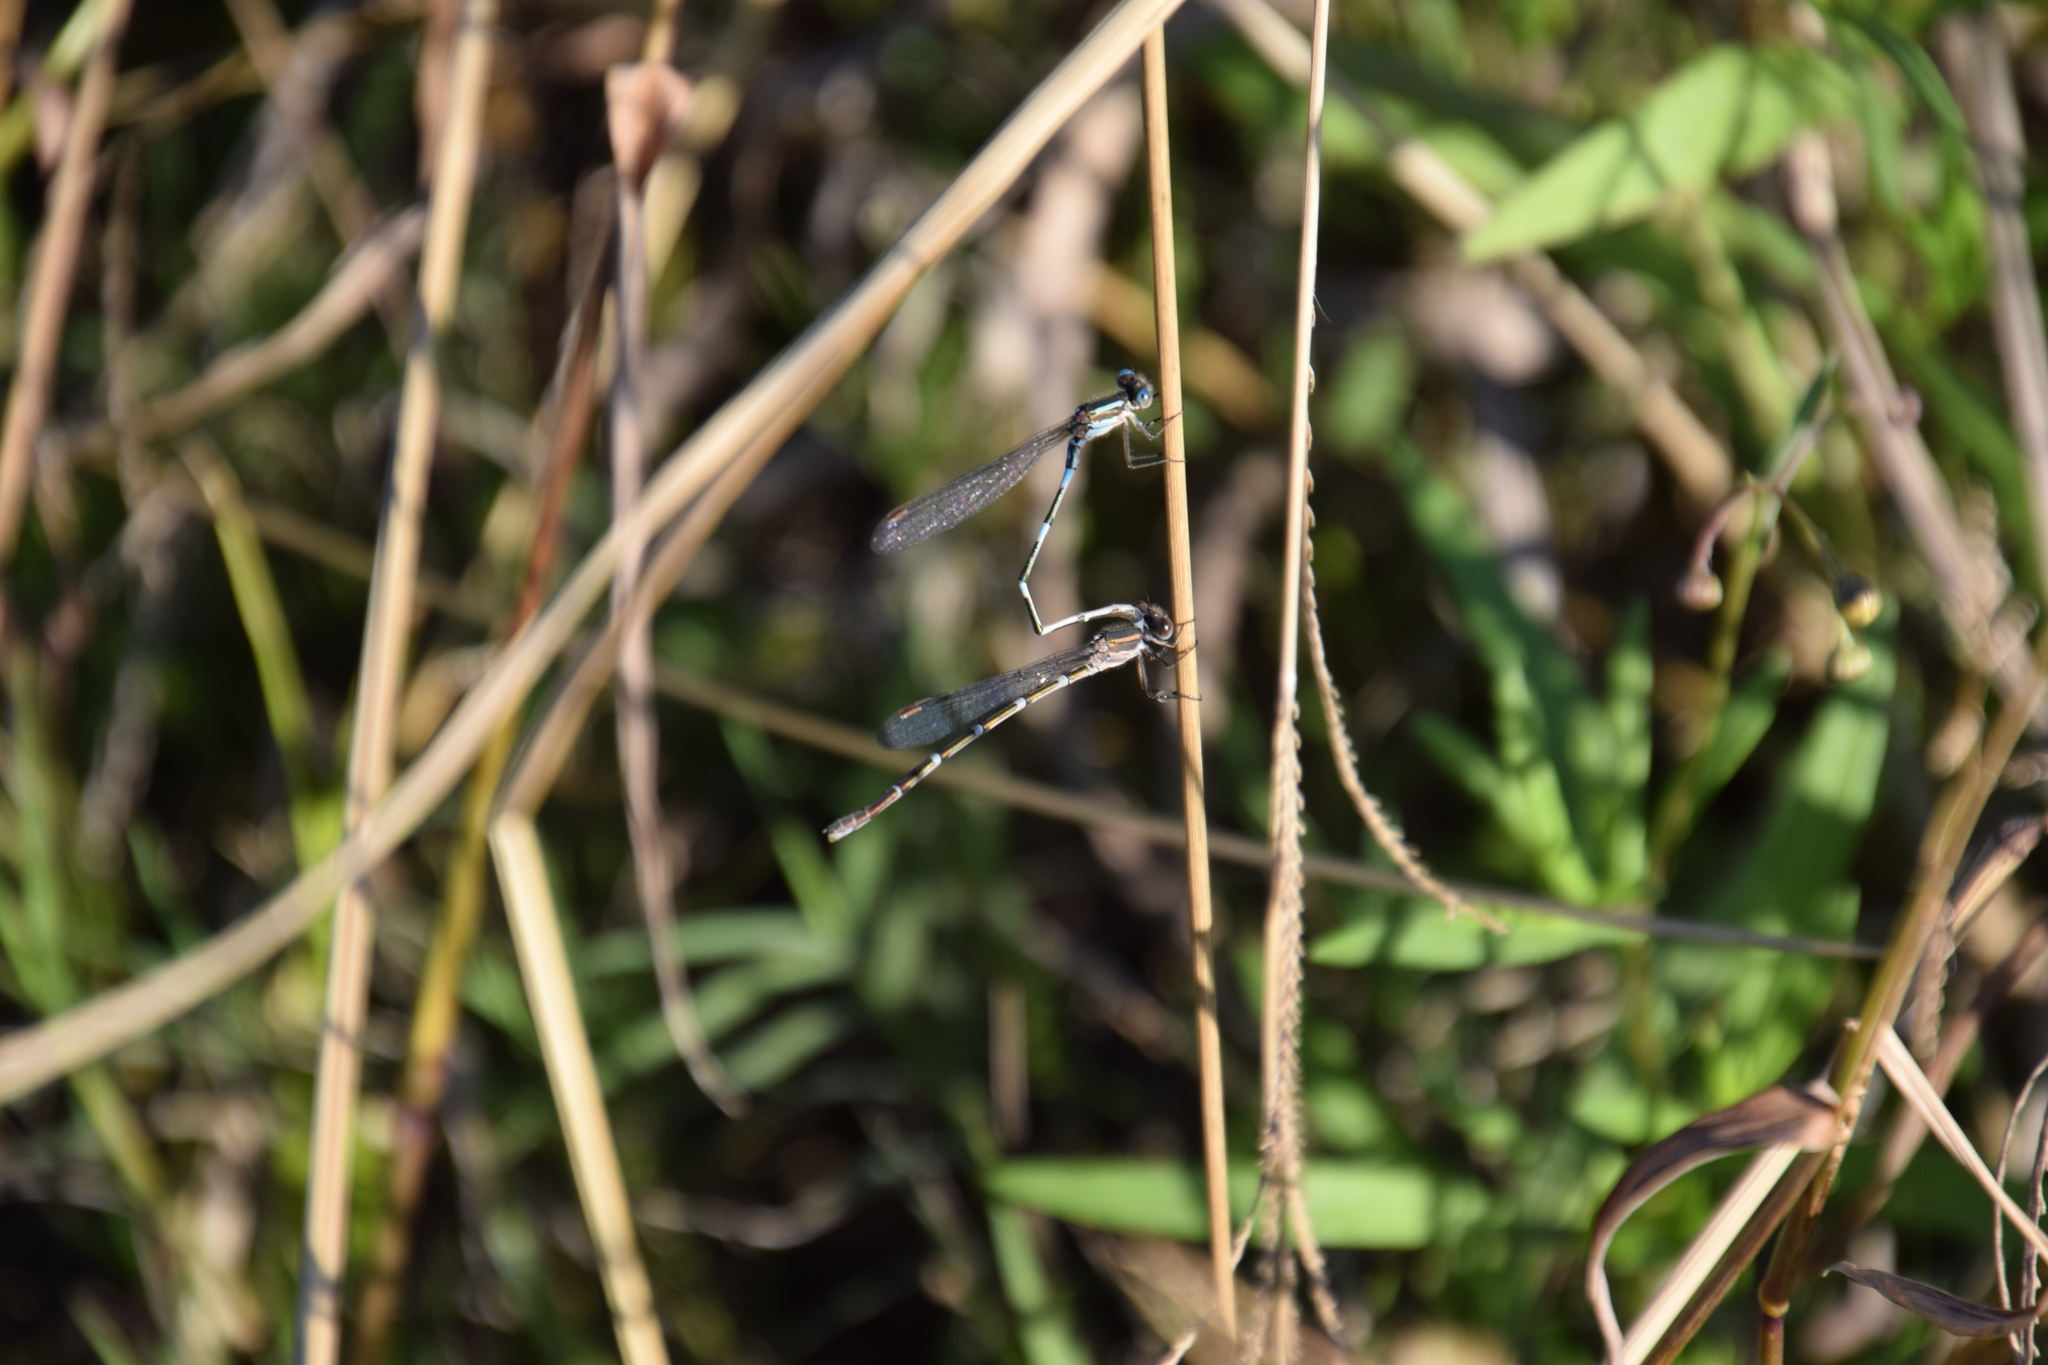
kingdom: Animalia
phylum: Arthropoda
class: Insecta
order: Odonata
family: Lestidae
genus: Austrolestes
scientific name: Austrolestes leda
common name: Wandering ringtail
